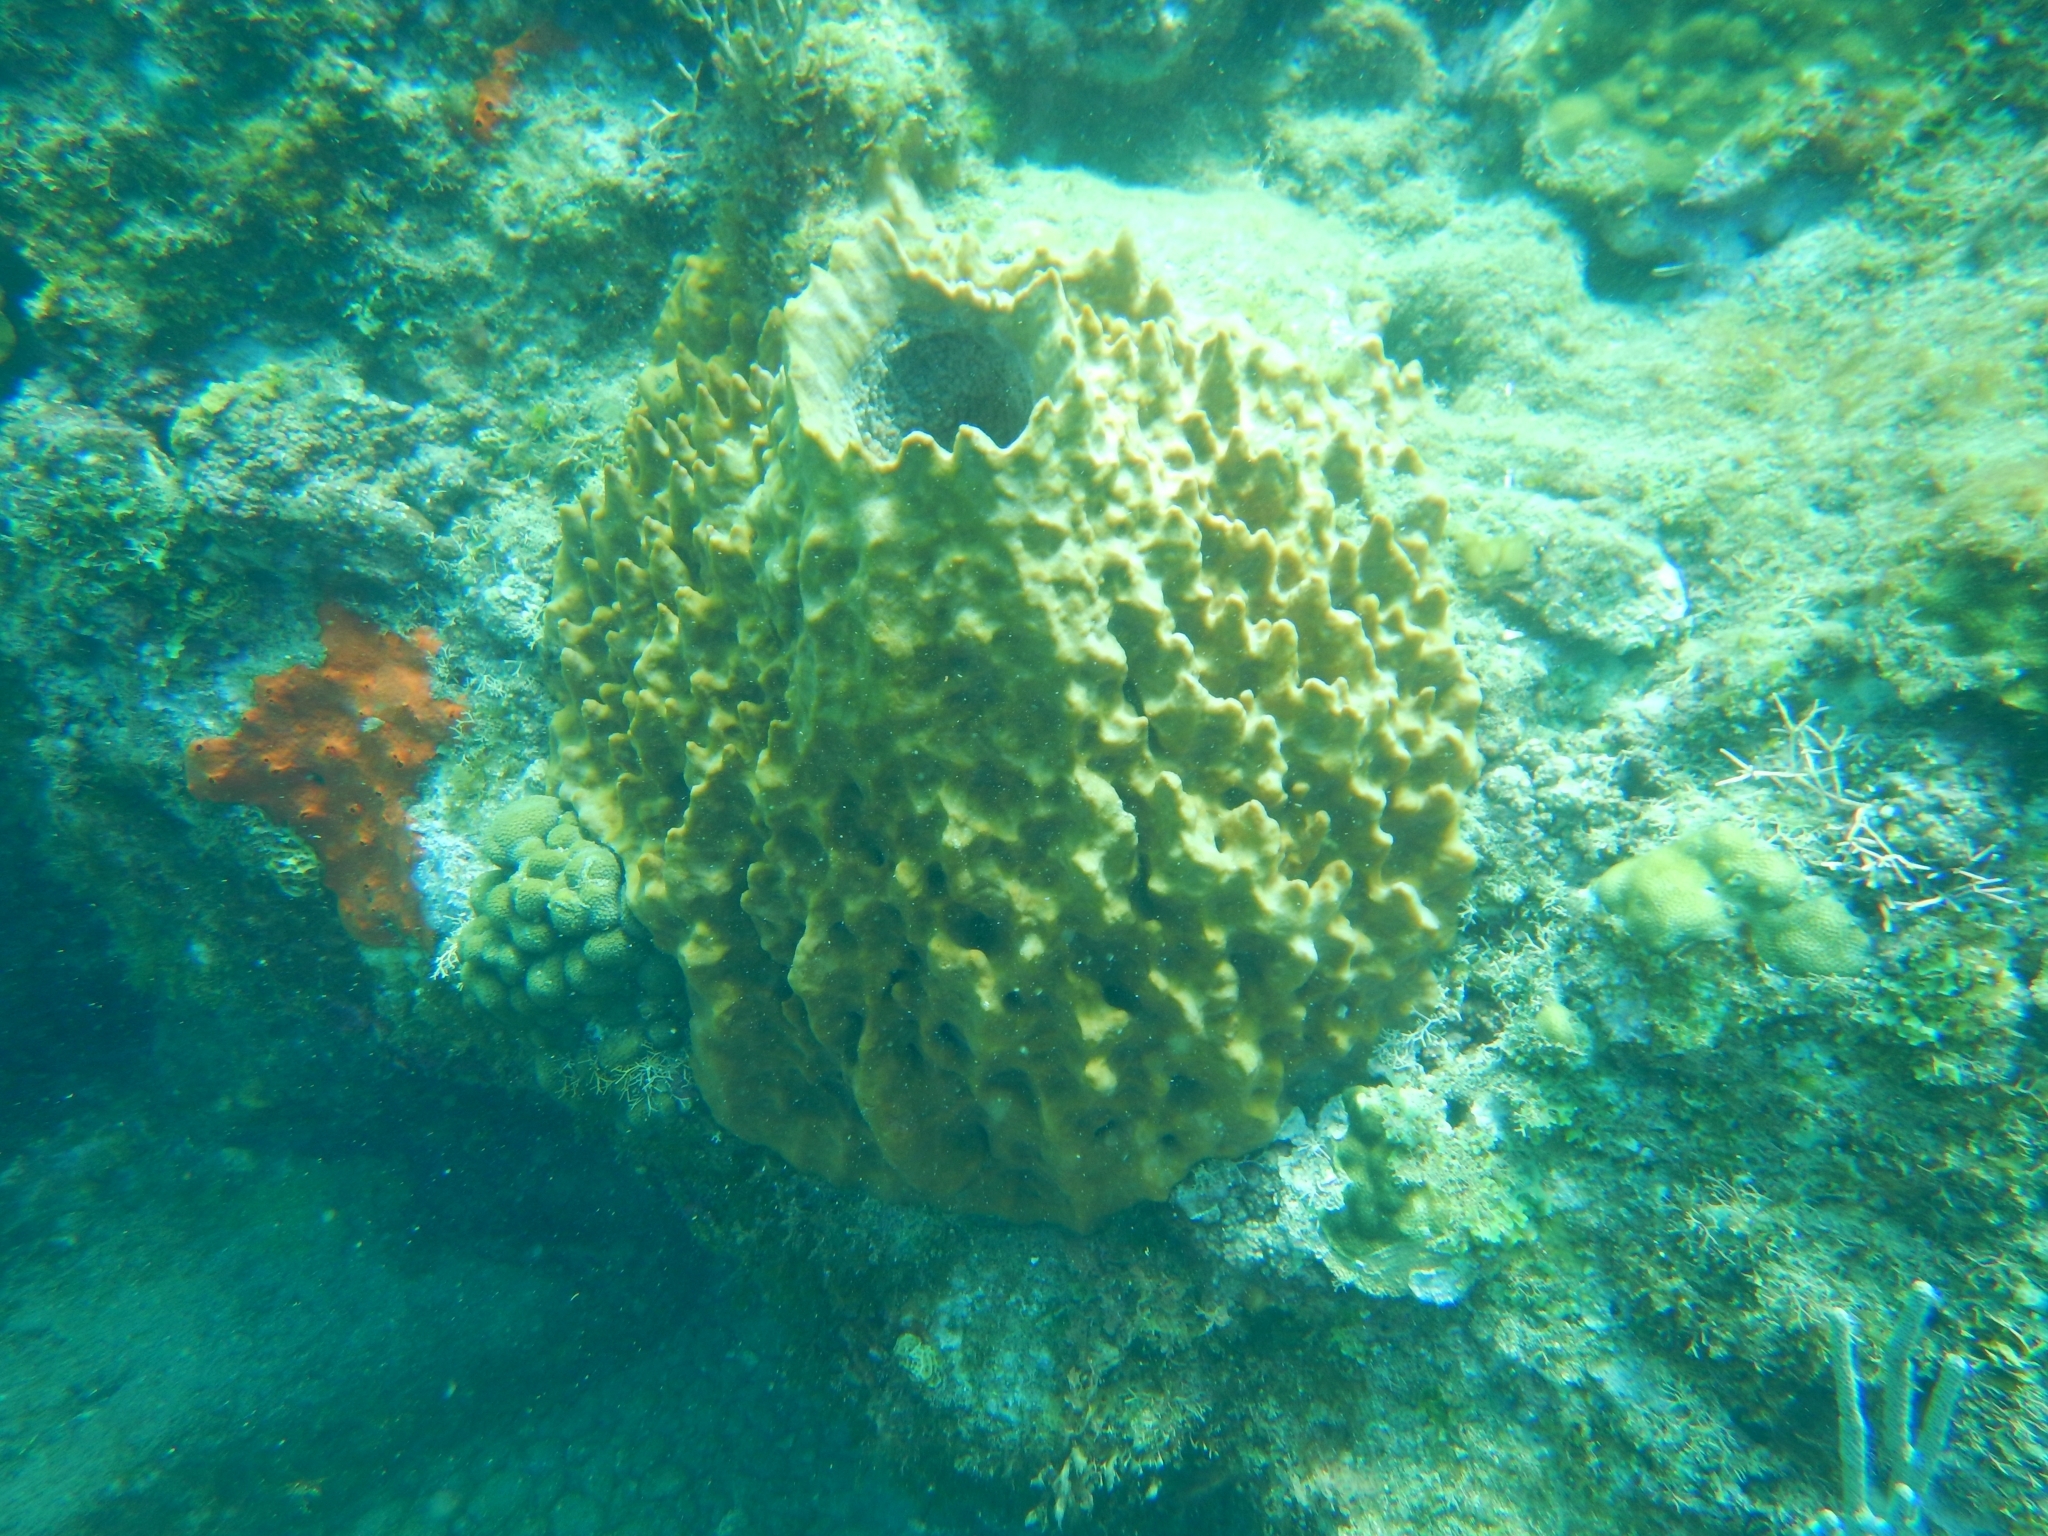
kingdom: Animalia
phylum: Porifera
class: Demospongiae
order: Haplosclerida
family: Petrosiidae
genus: Xestospongia
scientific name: Xestospongia muta
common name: Giant barrel sponge
